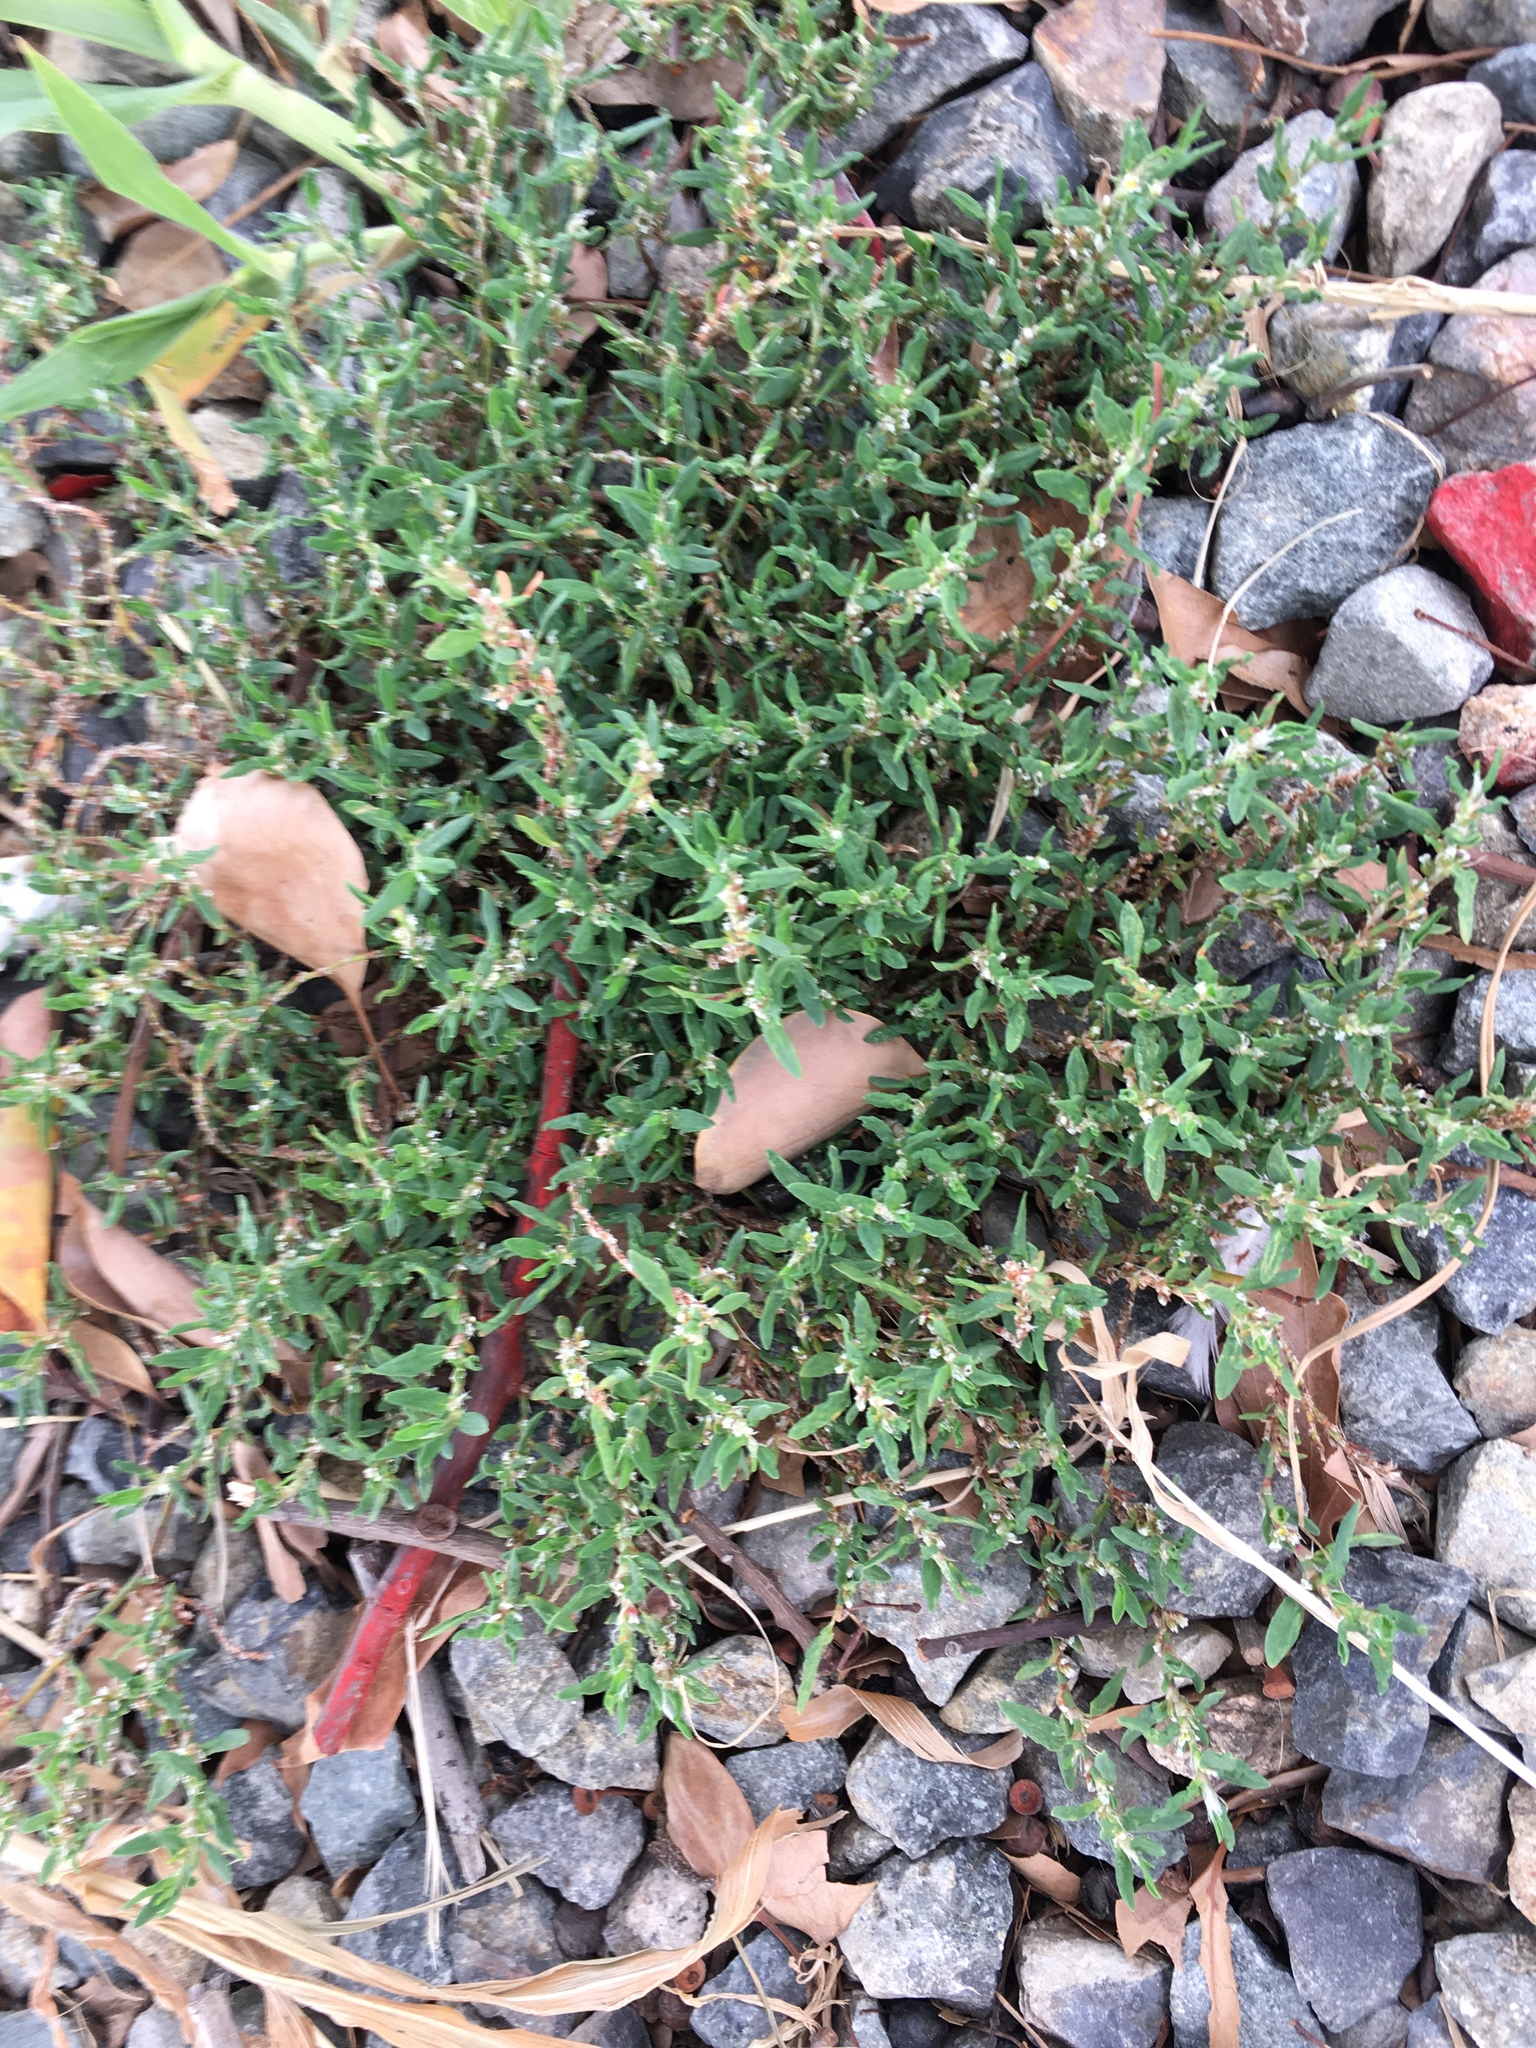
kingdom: Plantae
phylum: Tracheophyta
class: Magnoliopsida
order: Caryophyllales
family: Polygonaceae
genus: Polygonum
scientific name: Polygonum aviculare
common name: Prostrate knotweed
